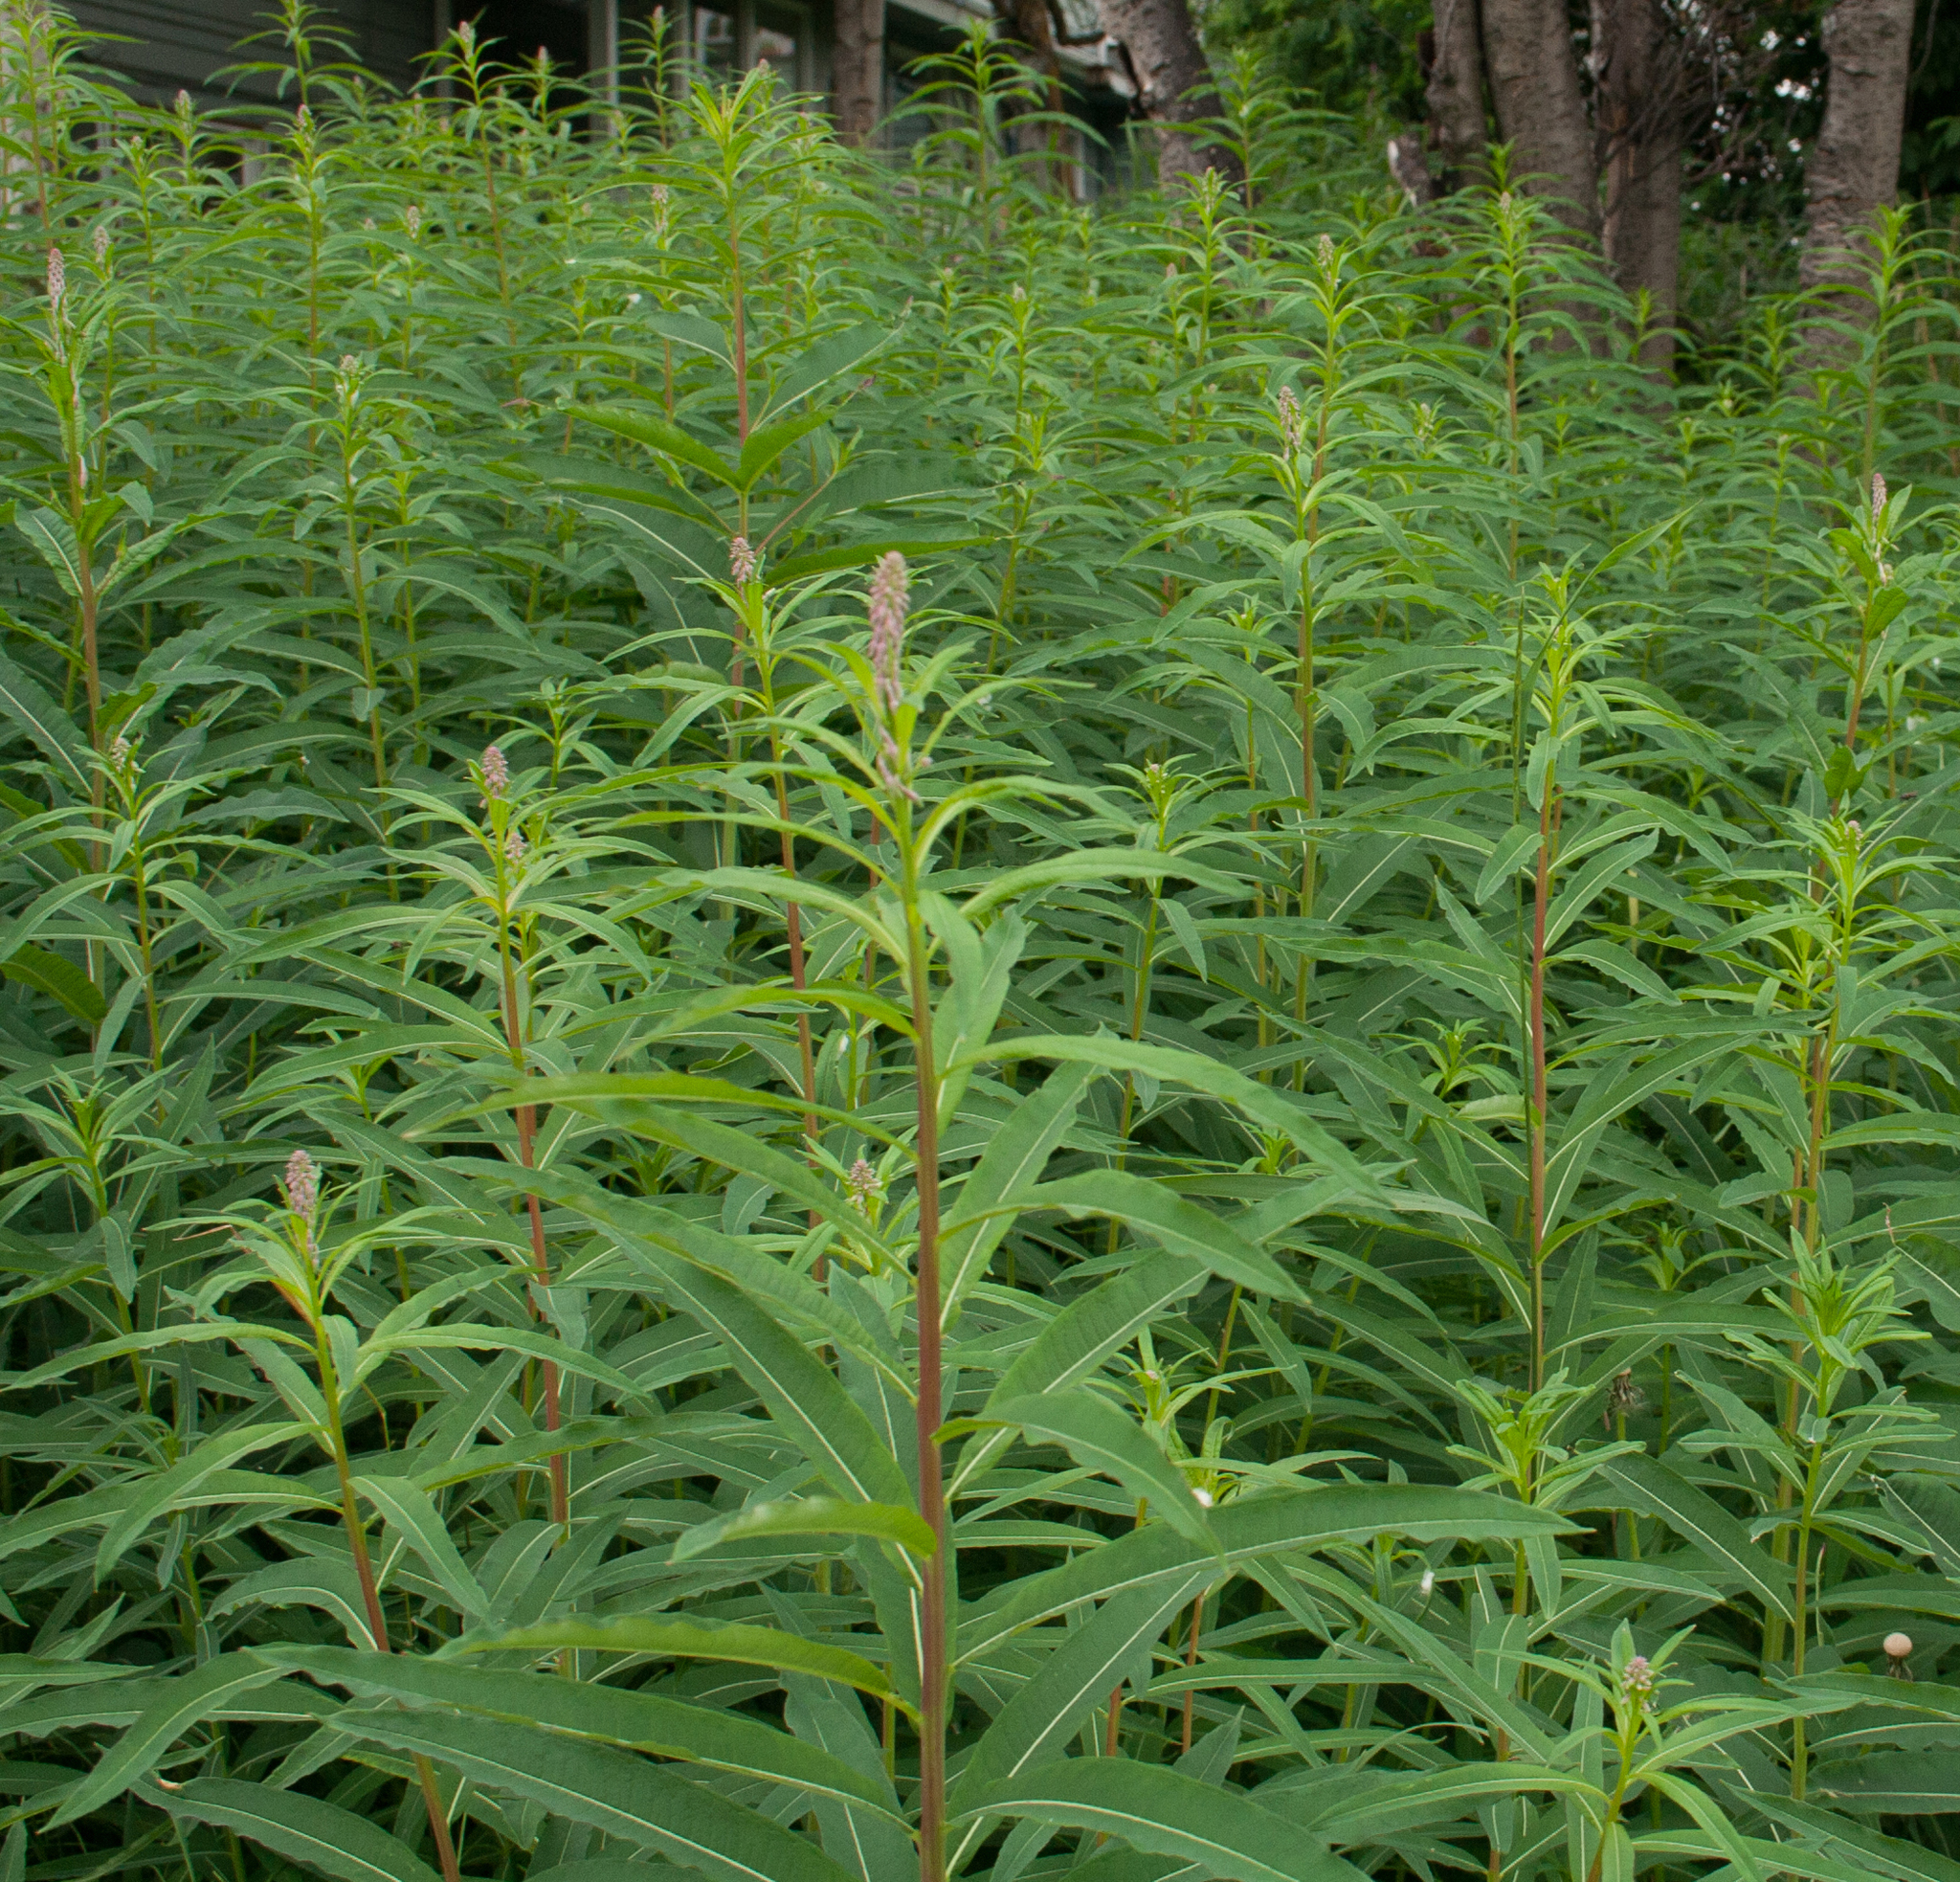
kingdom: Plantae
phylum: Tracheophyta
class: Magnoliopsida
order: Myrtales
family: Onagraceae
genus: Chamaenerion
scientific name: Chamaenerion angustifolium
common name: Fireweed
